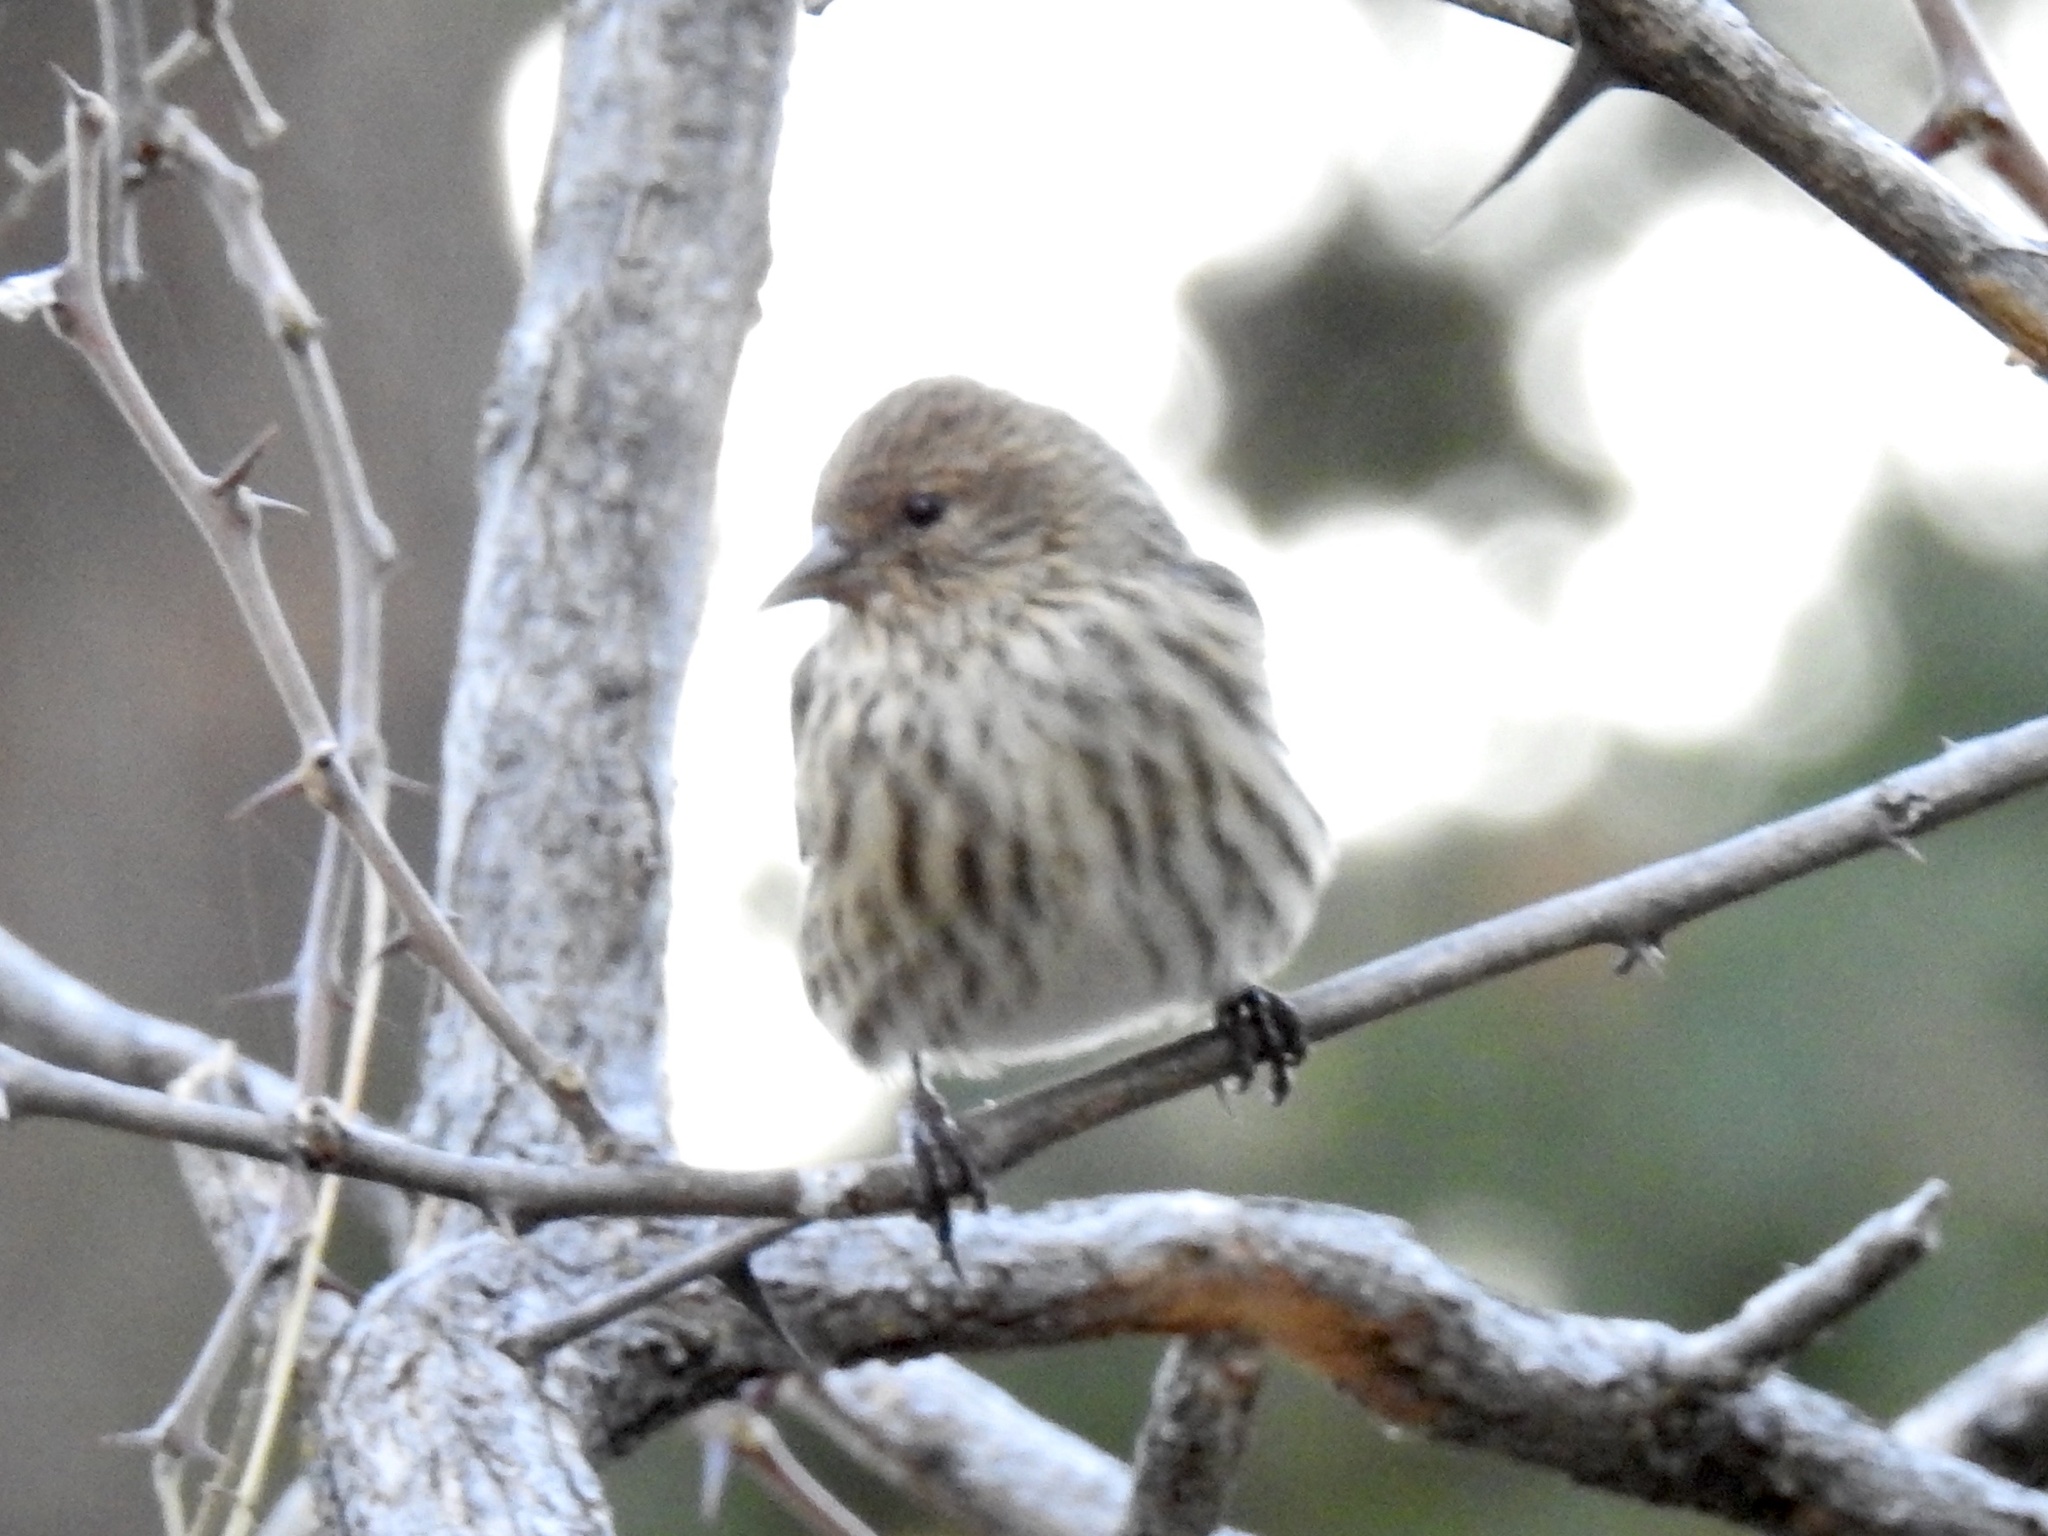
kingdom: Animalia
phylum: Chordata
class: Aves
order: Passeriformes
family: Fringillidae
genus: Spinus
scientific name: Spinus pinus
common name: Pine siskin
